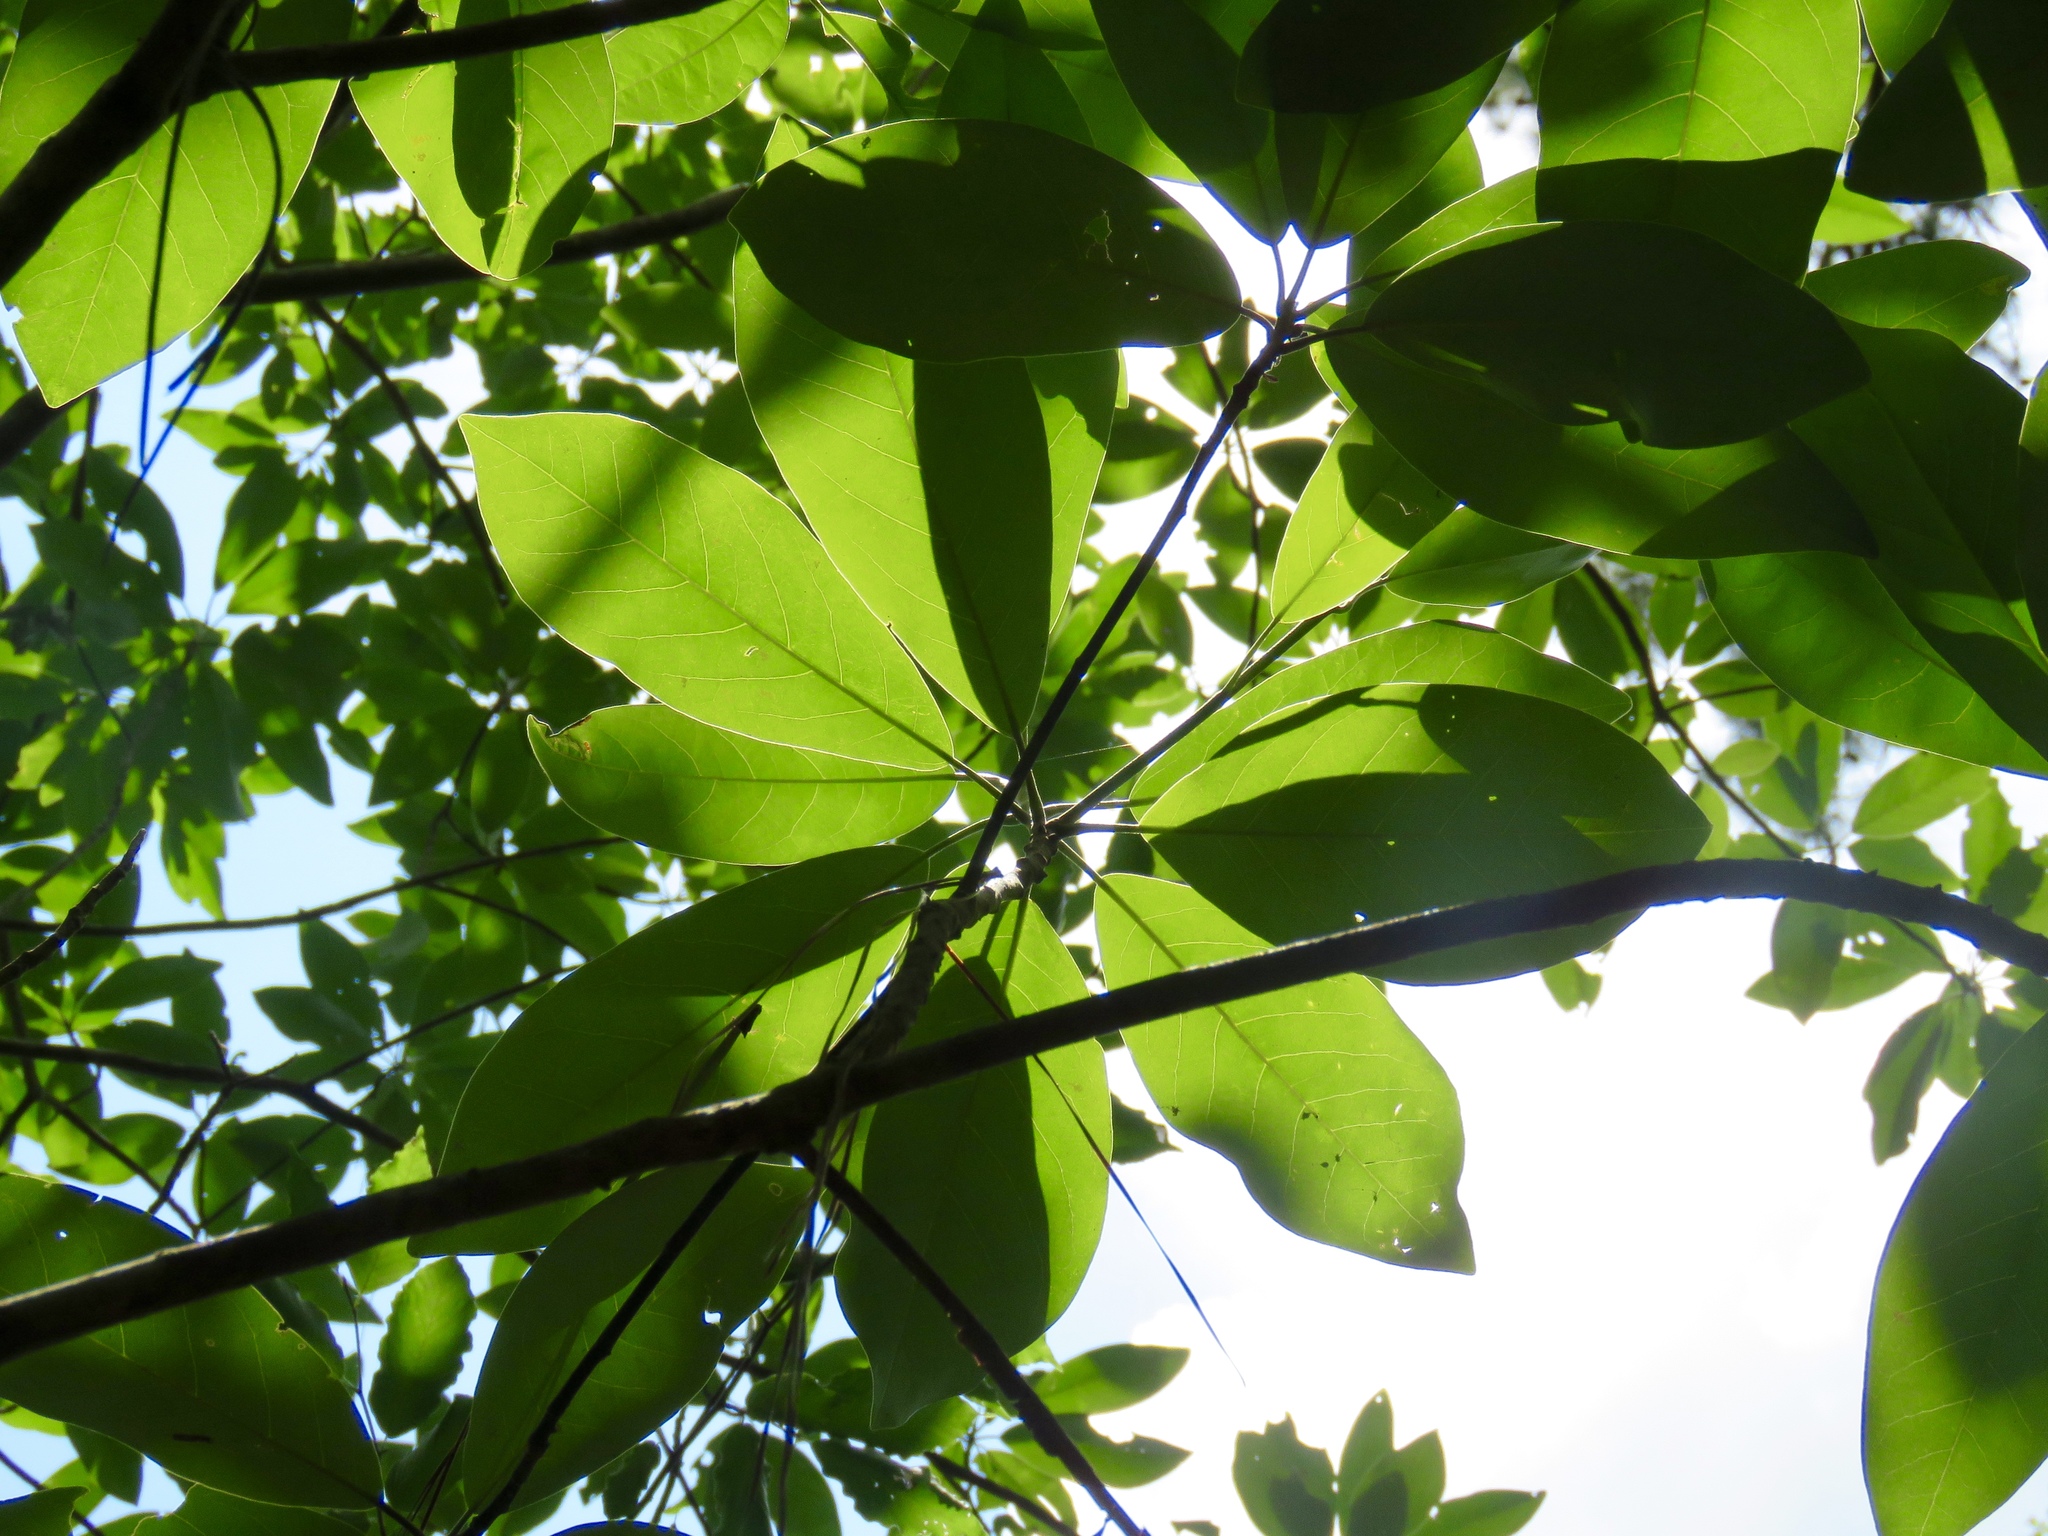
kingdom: Plantae
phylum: Tracheophyta
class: Magnoliopsida
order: Magnoliales
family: Magnoliaceae
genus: Magnolia
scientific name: Magnolia virginiana
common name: Swamp bay
